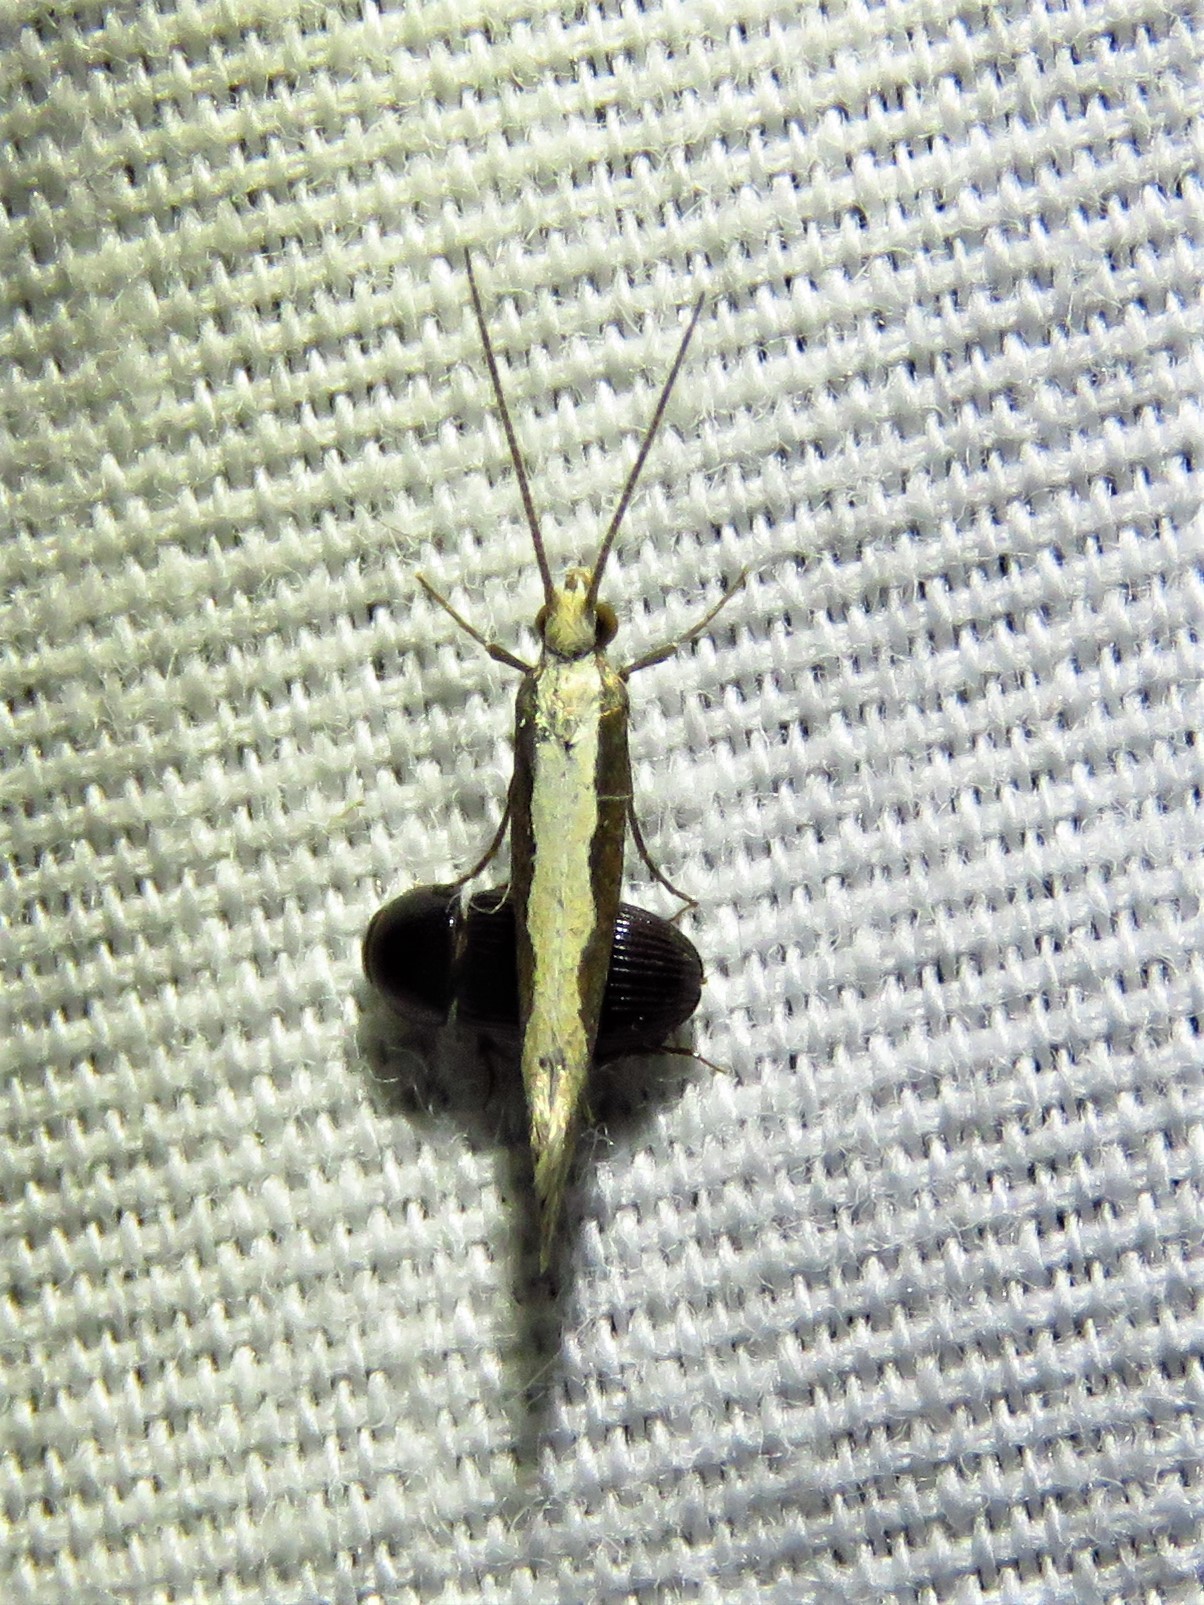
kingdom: Animalia
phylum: Arthropoda
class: Insecta
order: Lepidoptera
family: Plutellidae
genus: Plutella
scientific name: Plutella xylostella
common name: Diamond-back moth
